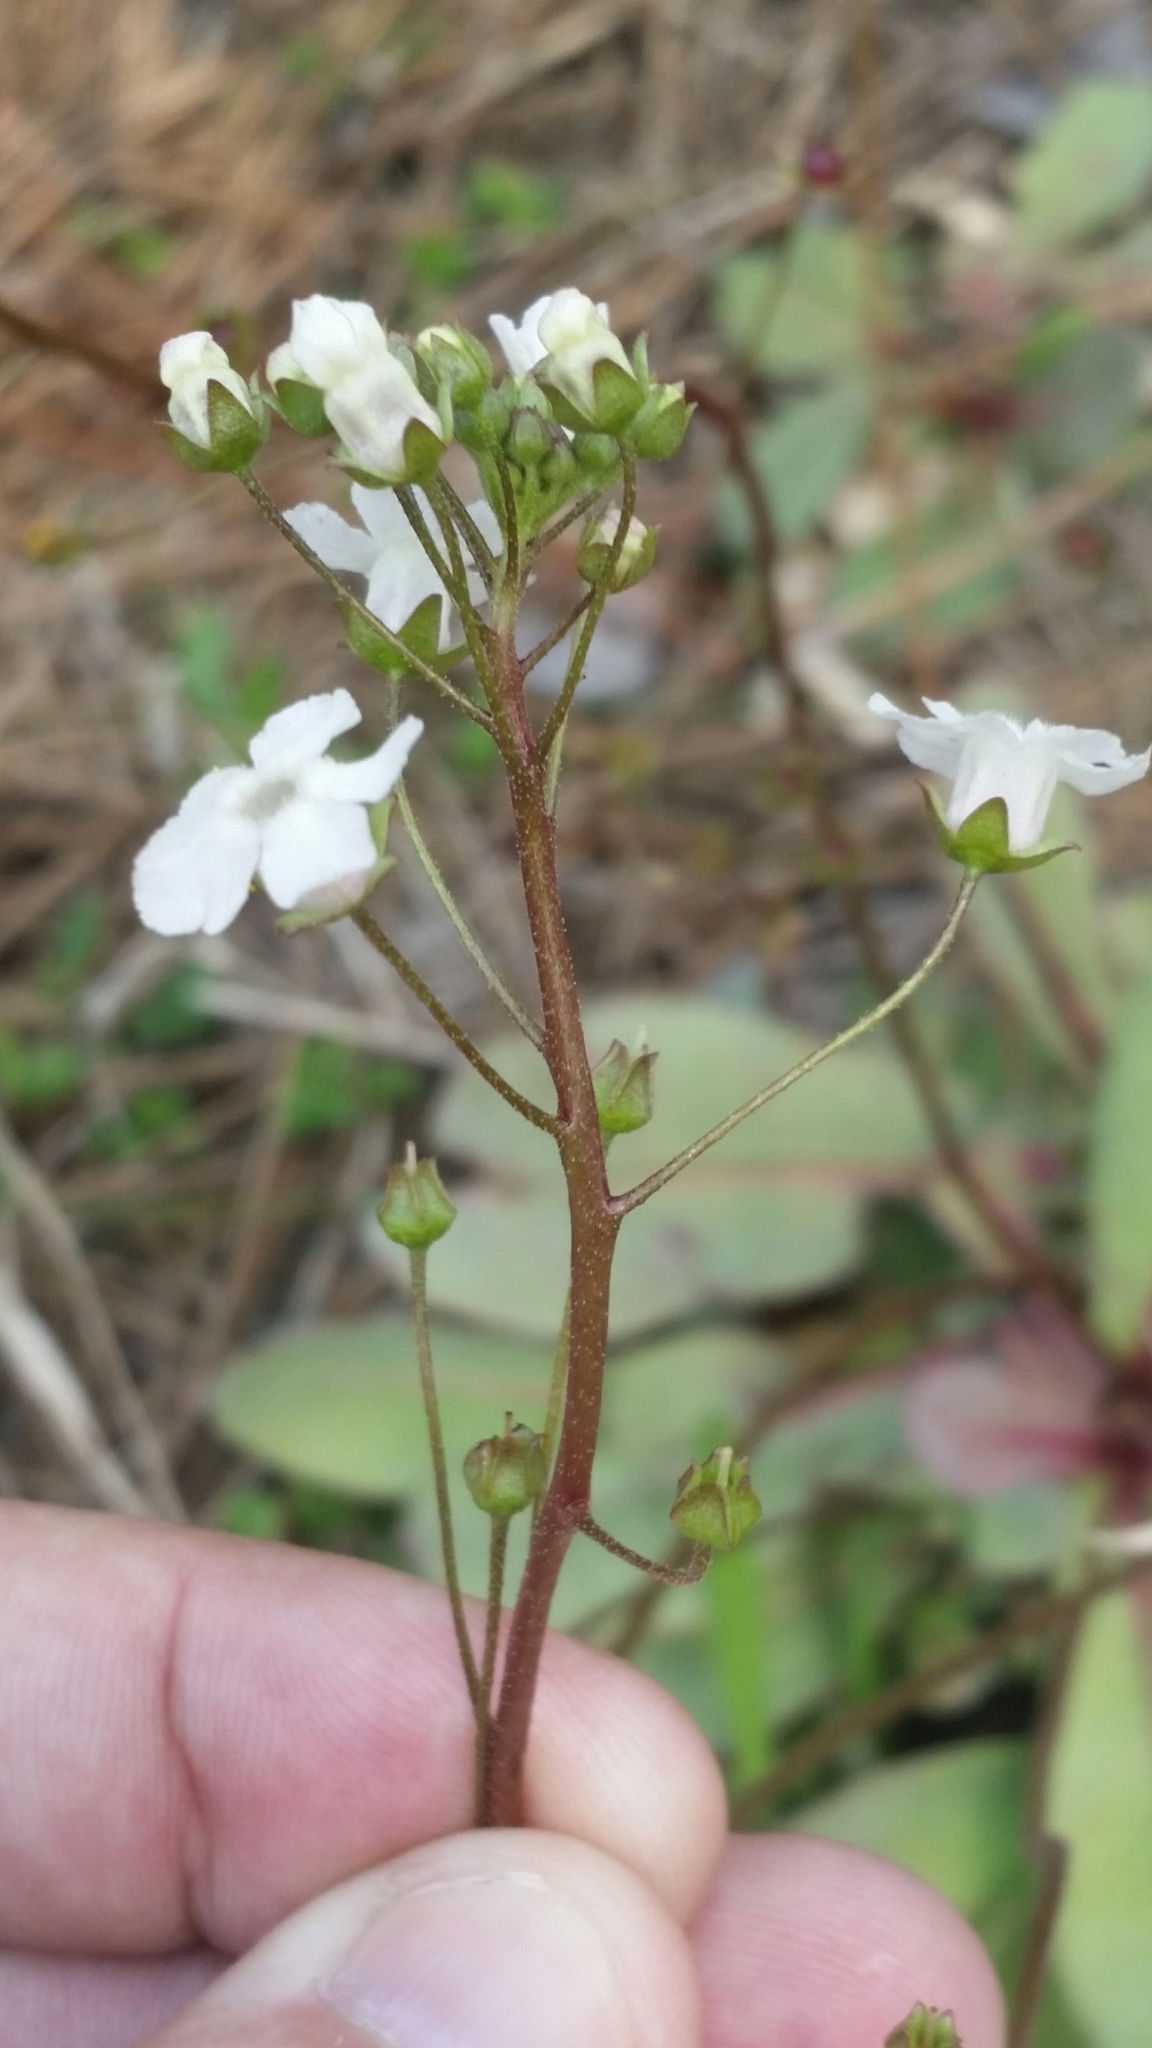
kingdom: Plantae
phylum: Tracheophyta
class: Magnoliopsida
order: Ericales
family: Primulaceae
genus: Samolus
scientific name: Samolus ebracteatus
